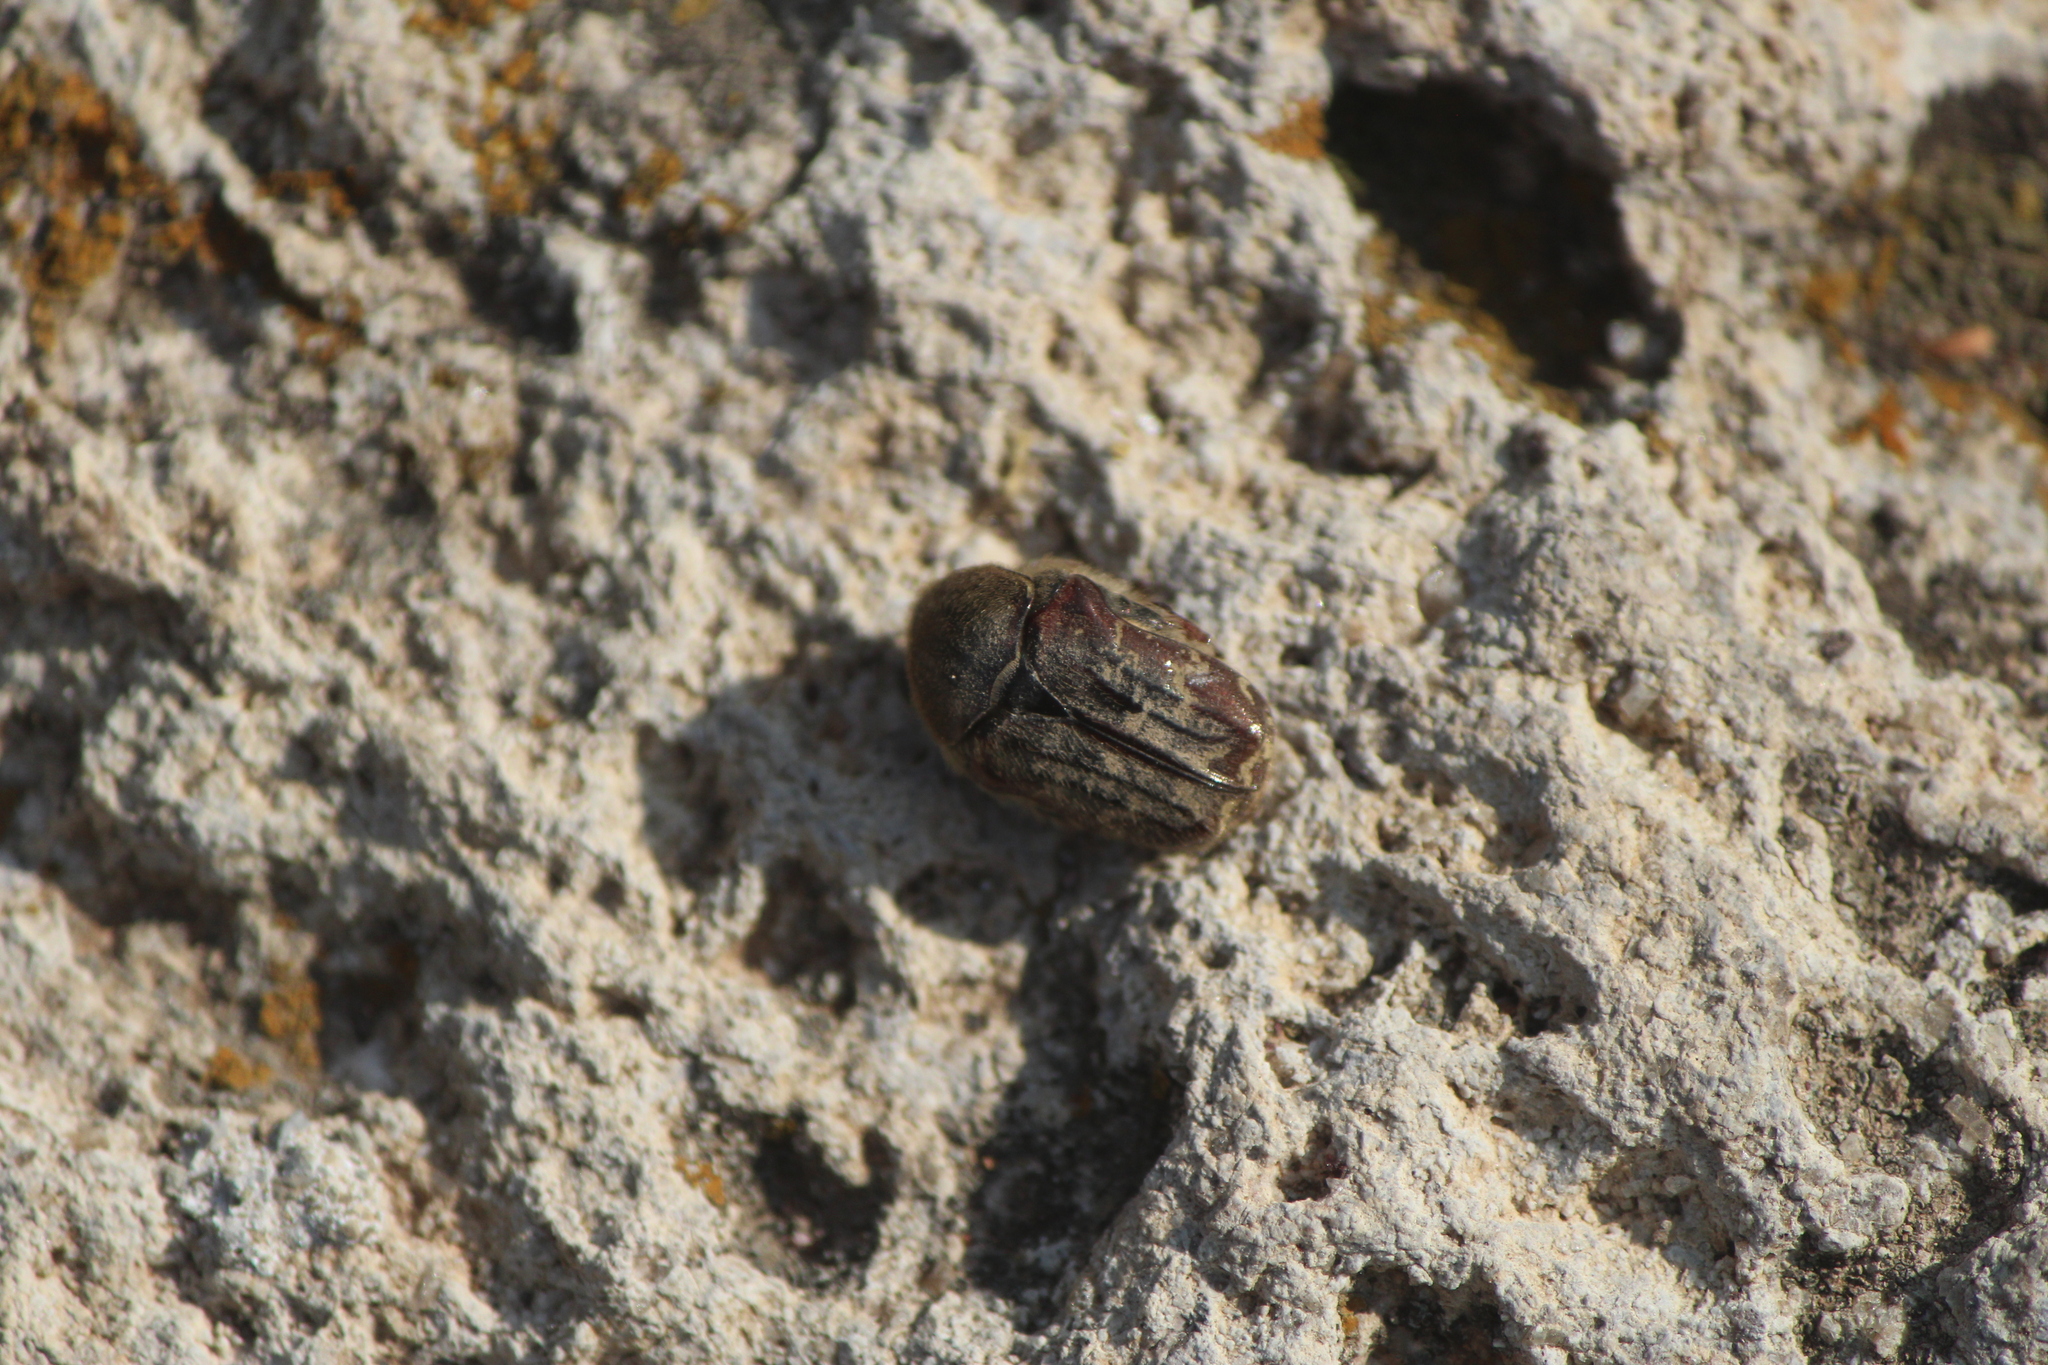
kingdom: Animalia
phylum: Arthropoda
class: Insecta
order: Coleoptera
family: Scarabaeidae
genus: Euphoria
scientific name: Euphoria leucographa
